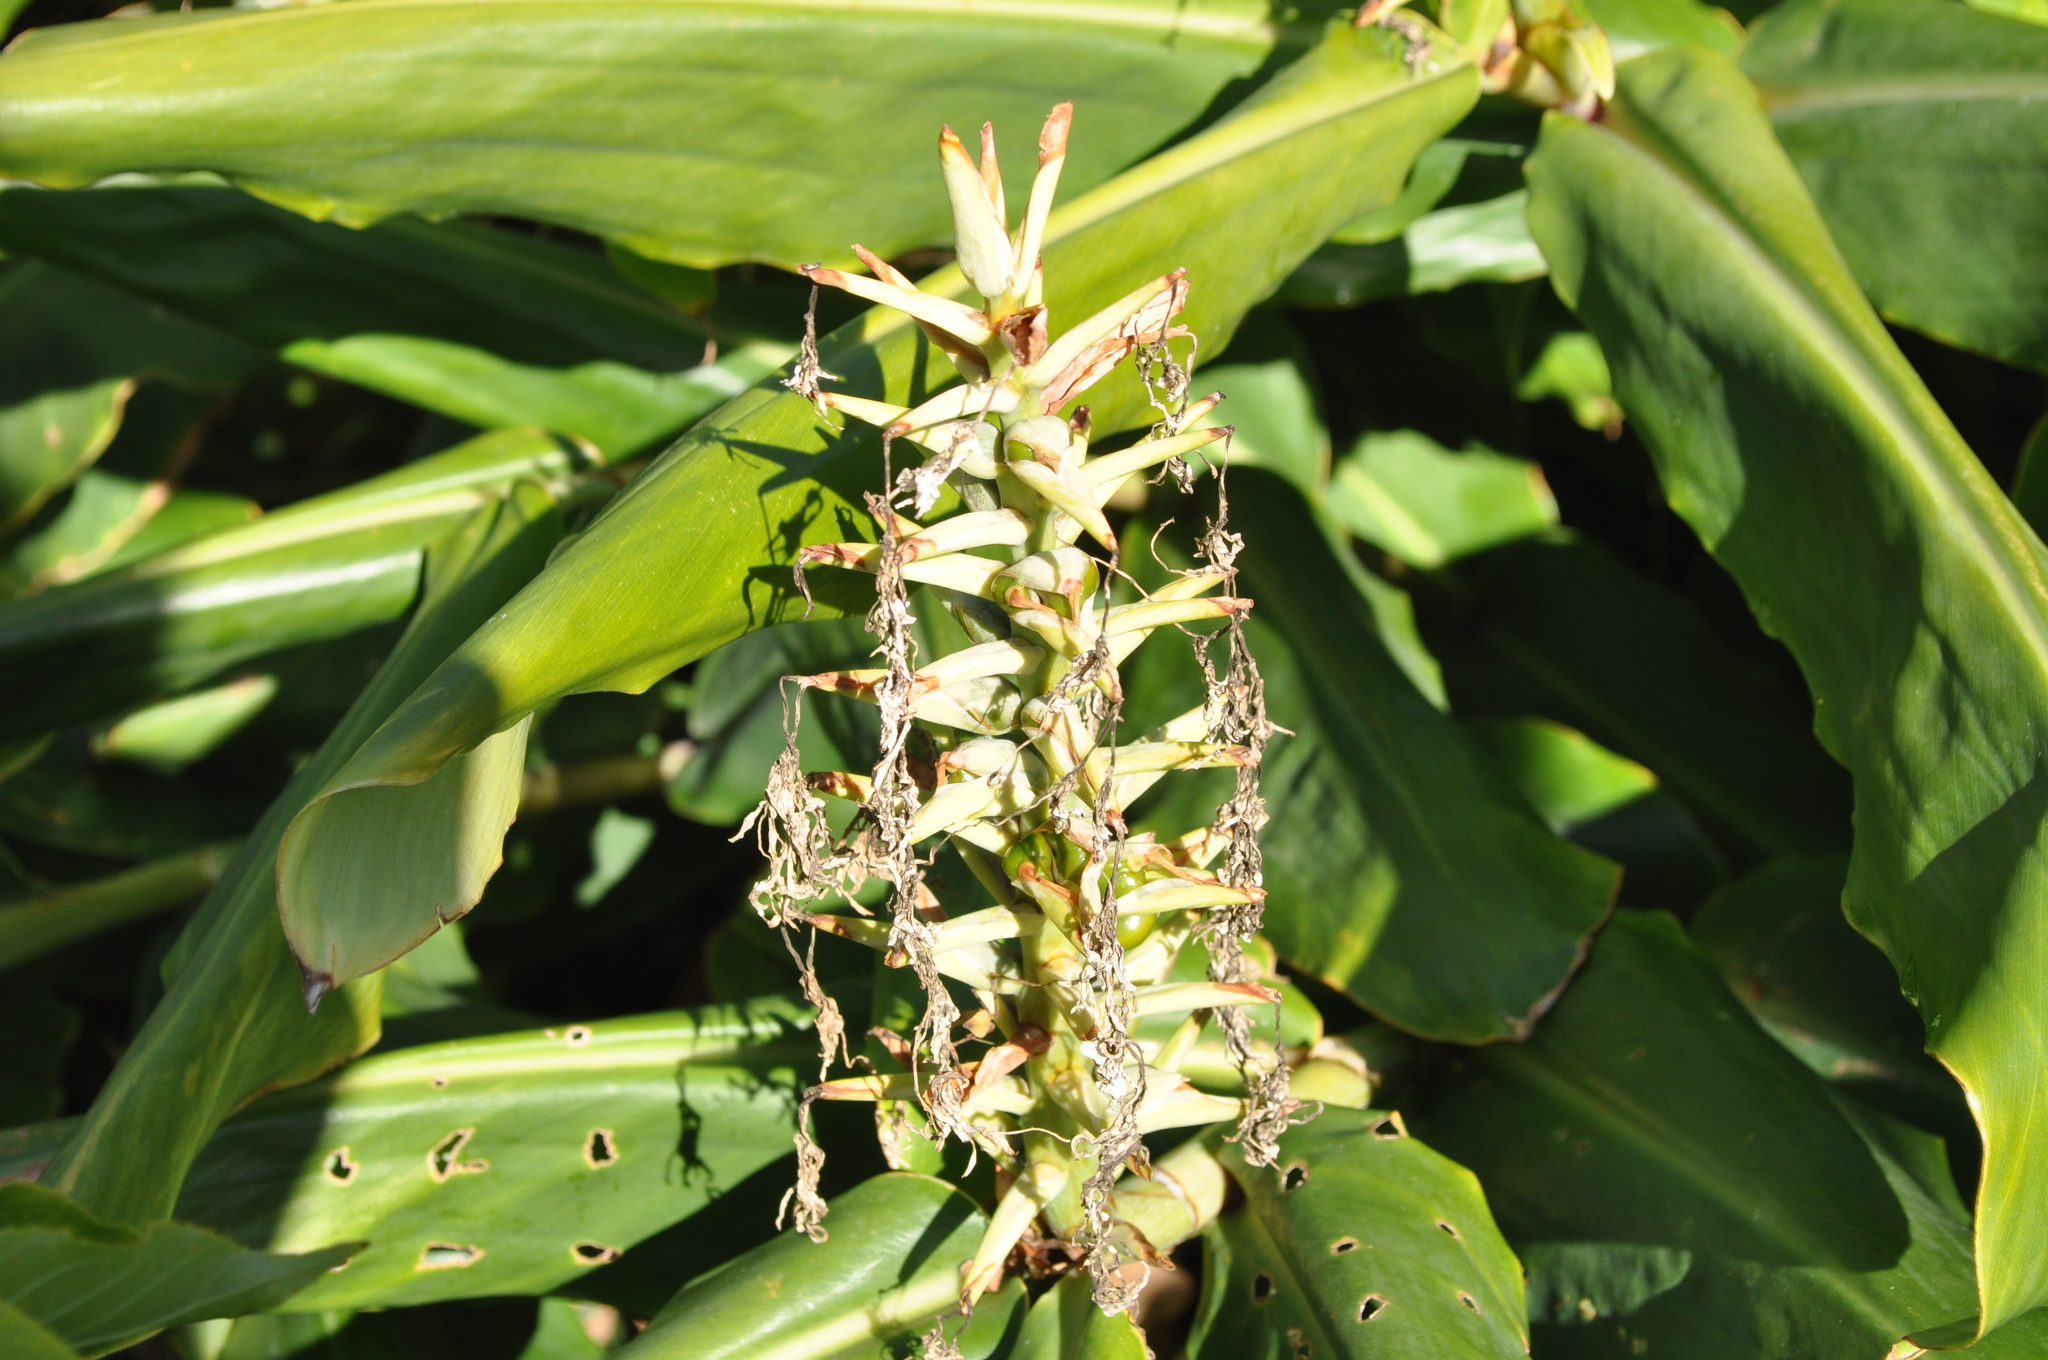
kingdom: Plantae
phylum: Tracheophyta
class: Liliopsida
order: Zingiberales
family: Zingiberaceae
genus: Hedychium
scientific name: Hedychium gardnerianum
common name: Himalayan ginger
